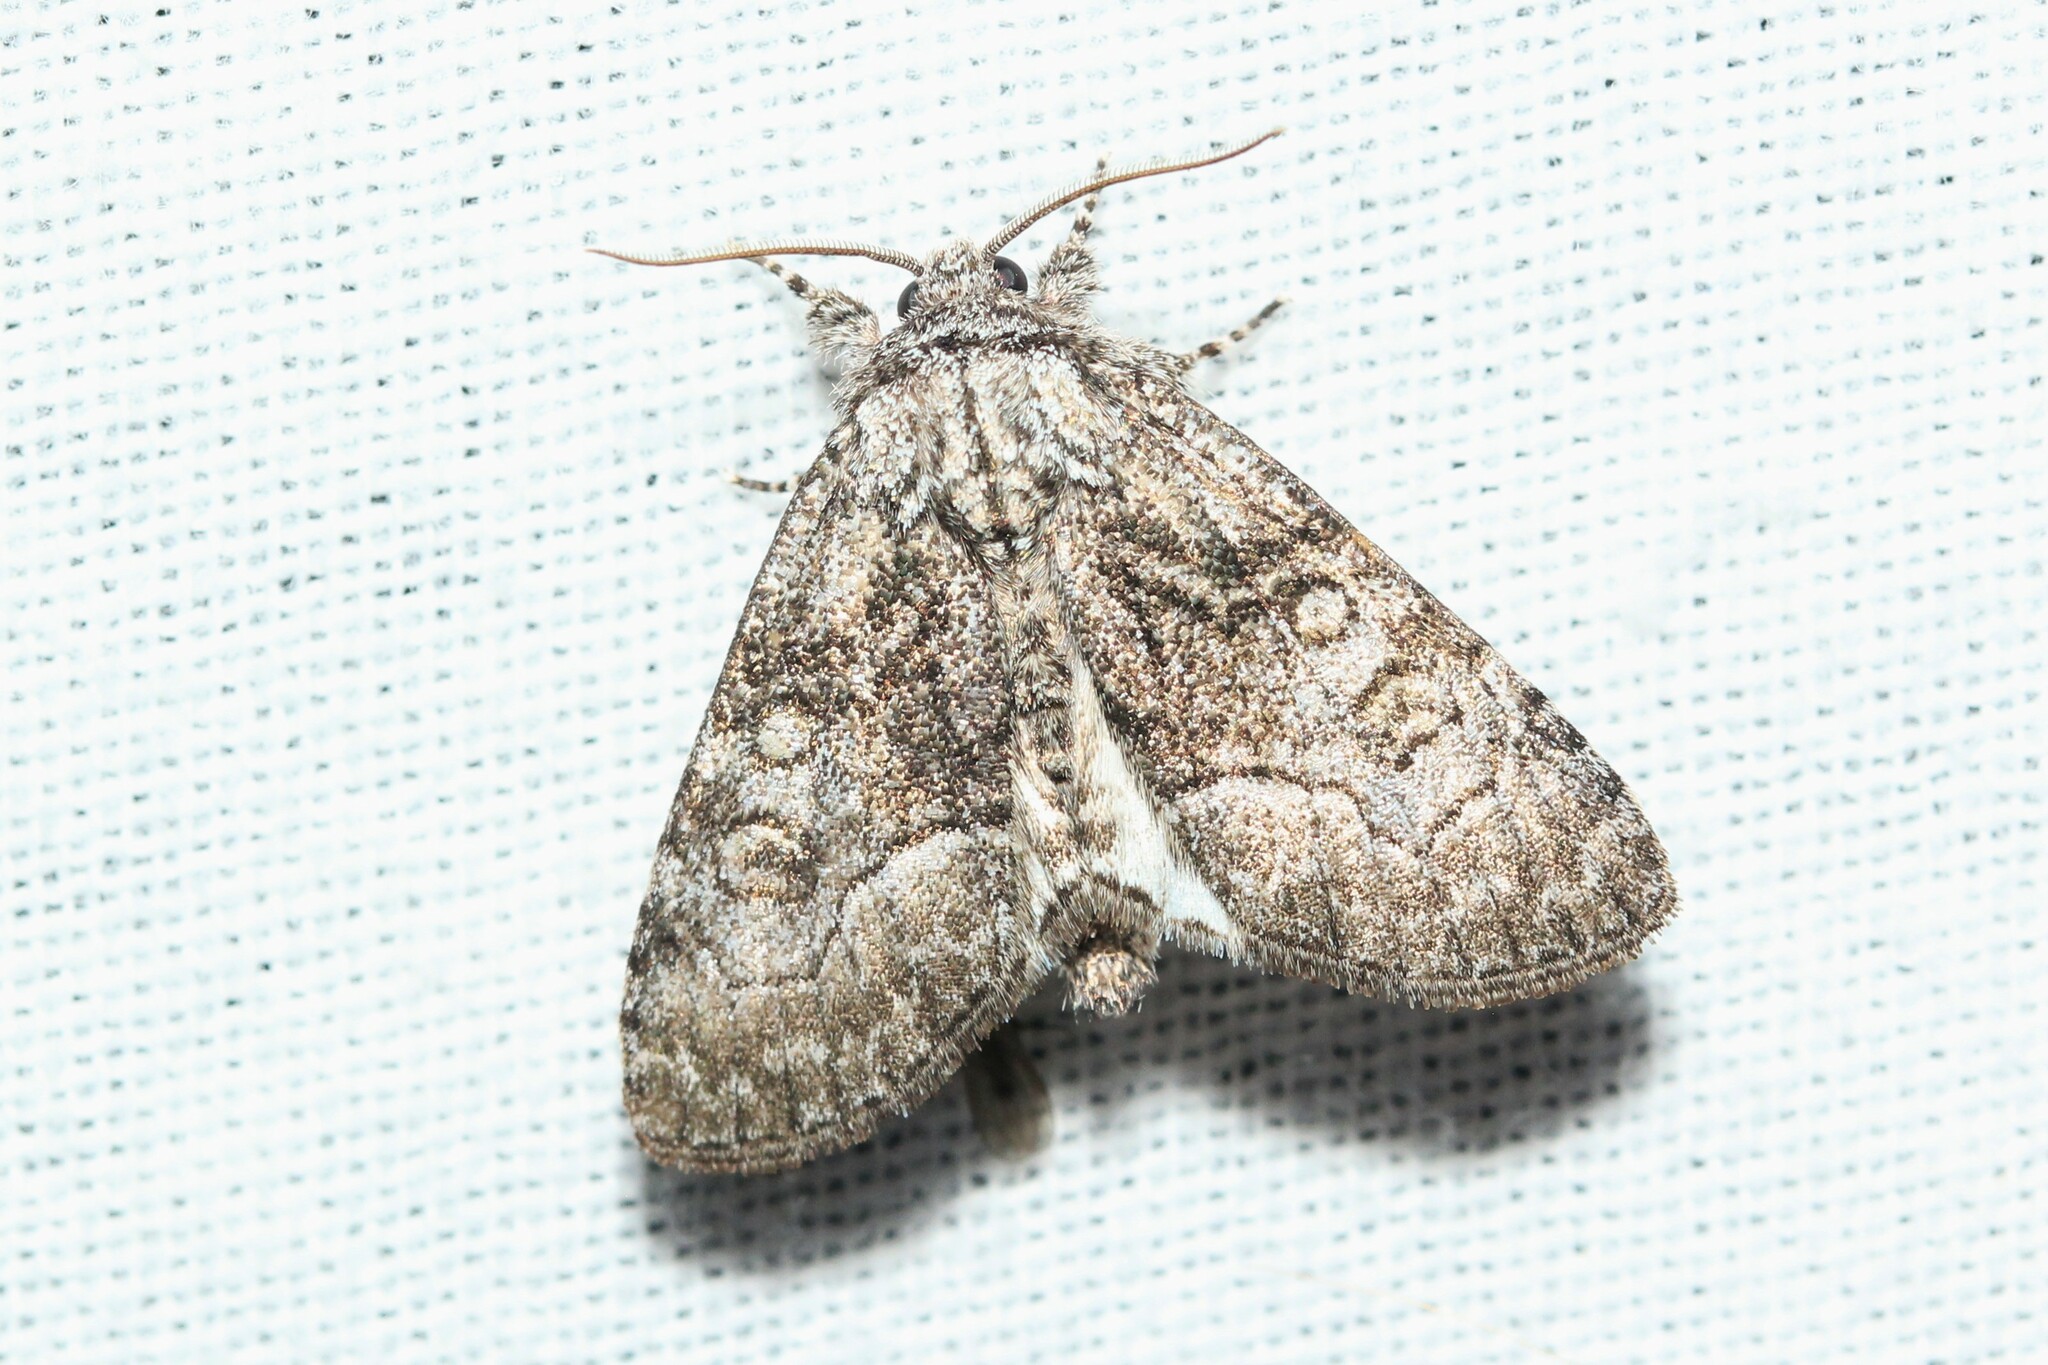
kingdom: Animalia
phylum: Arthropoda
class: Insecta
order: Lepidoptera
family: Noctuidae
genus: Raphia
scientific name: Raphia frater
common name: Brother
